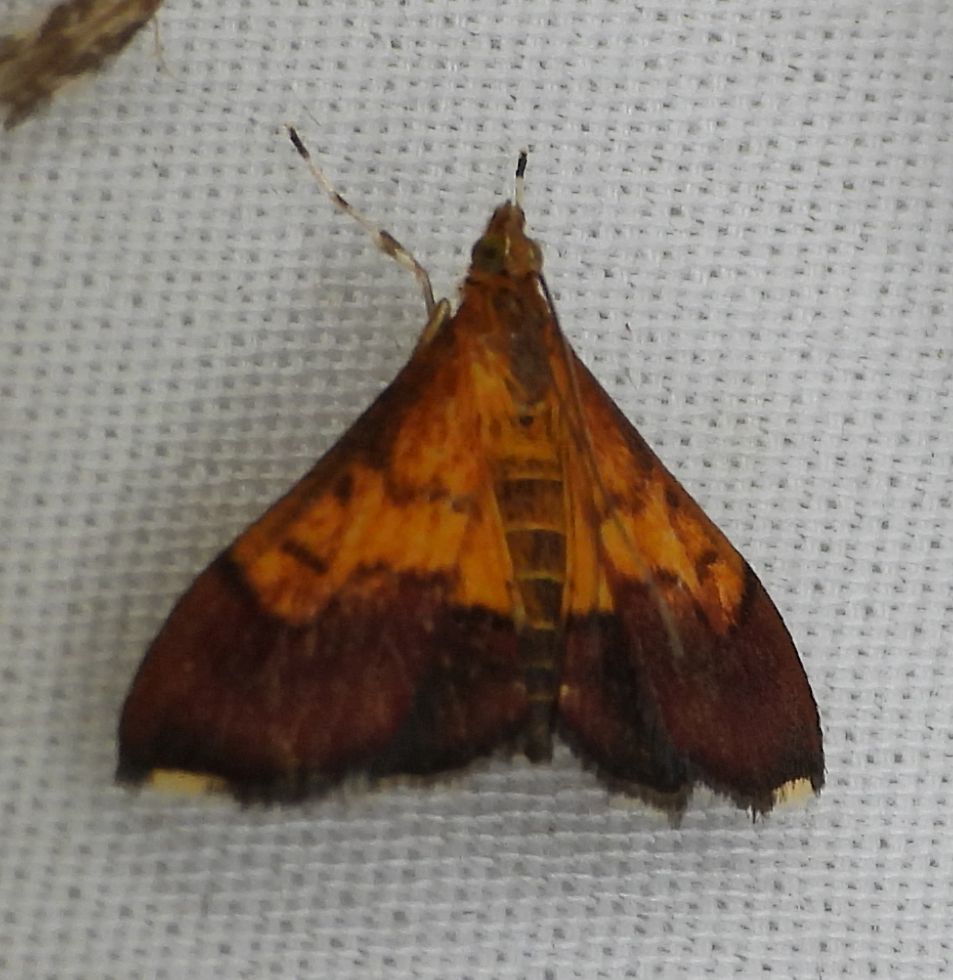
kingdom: Animalia
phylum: Arthropoda
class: Insecta
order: Lepidoptera
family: Crambidae
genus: Pyrausta
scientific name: Pyrausta bicoloralis
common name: Bicolored pyrausta moth
